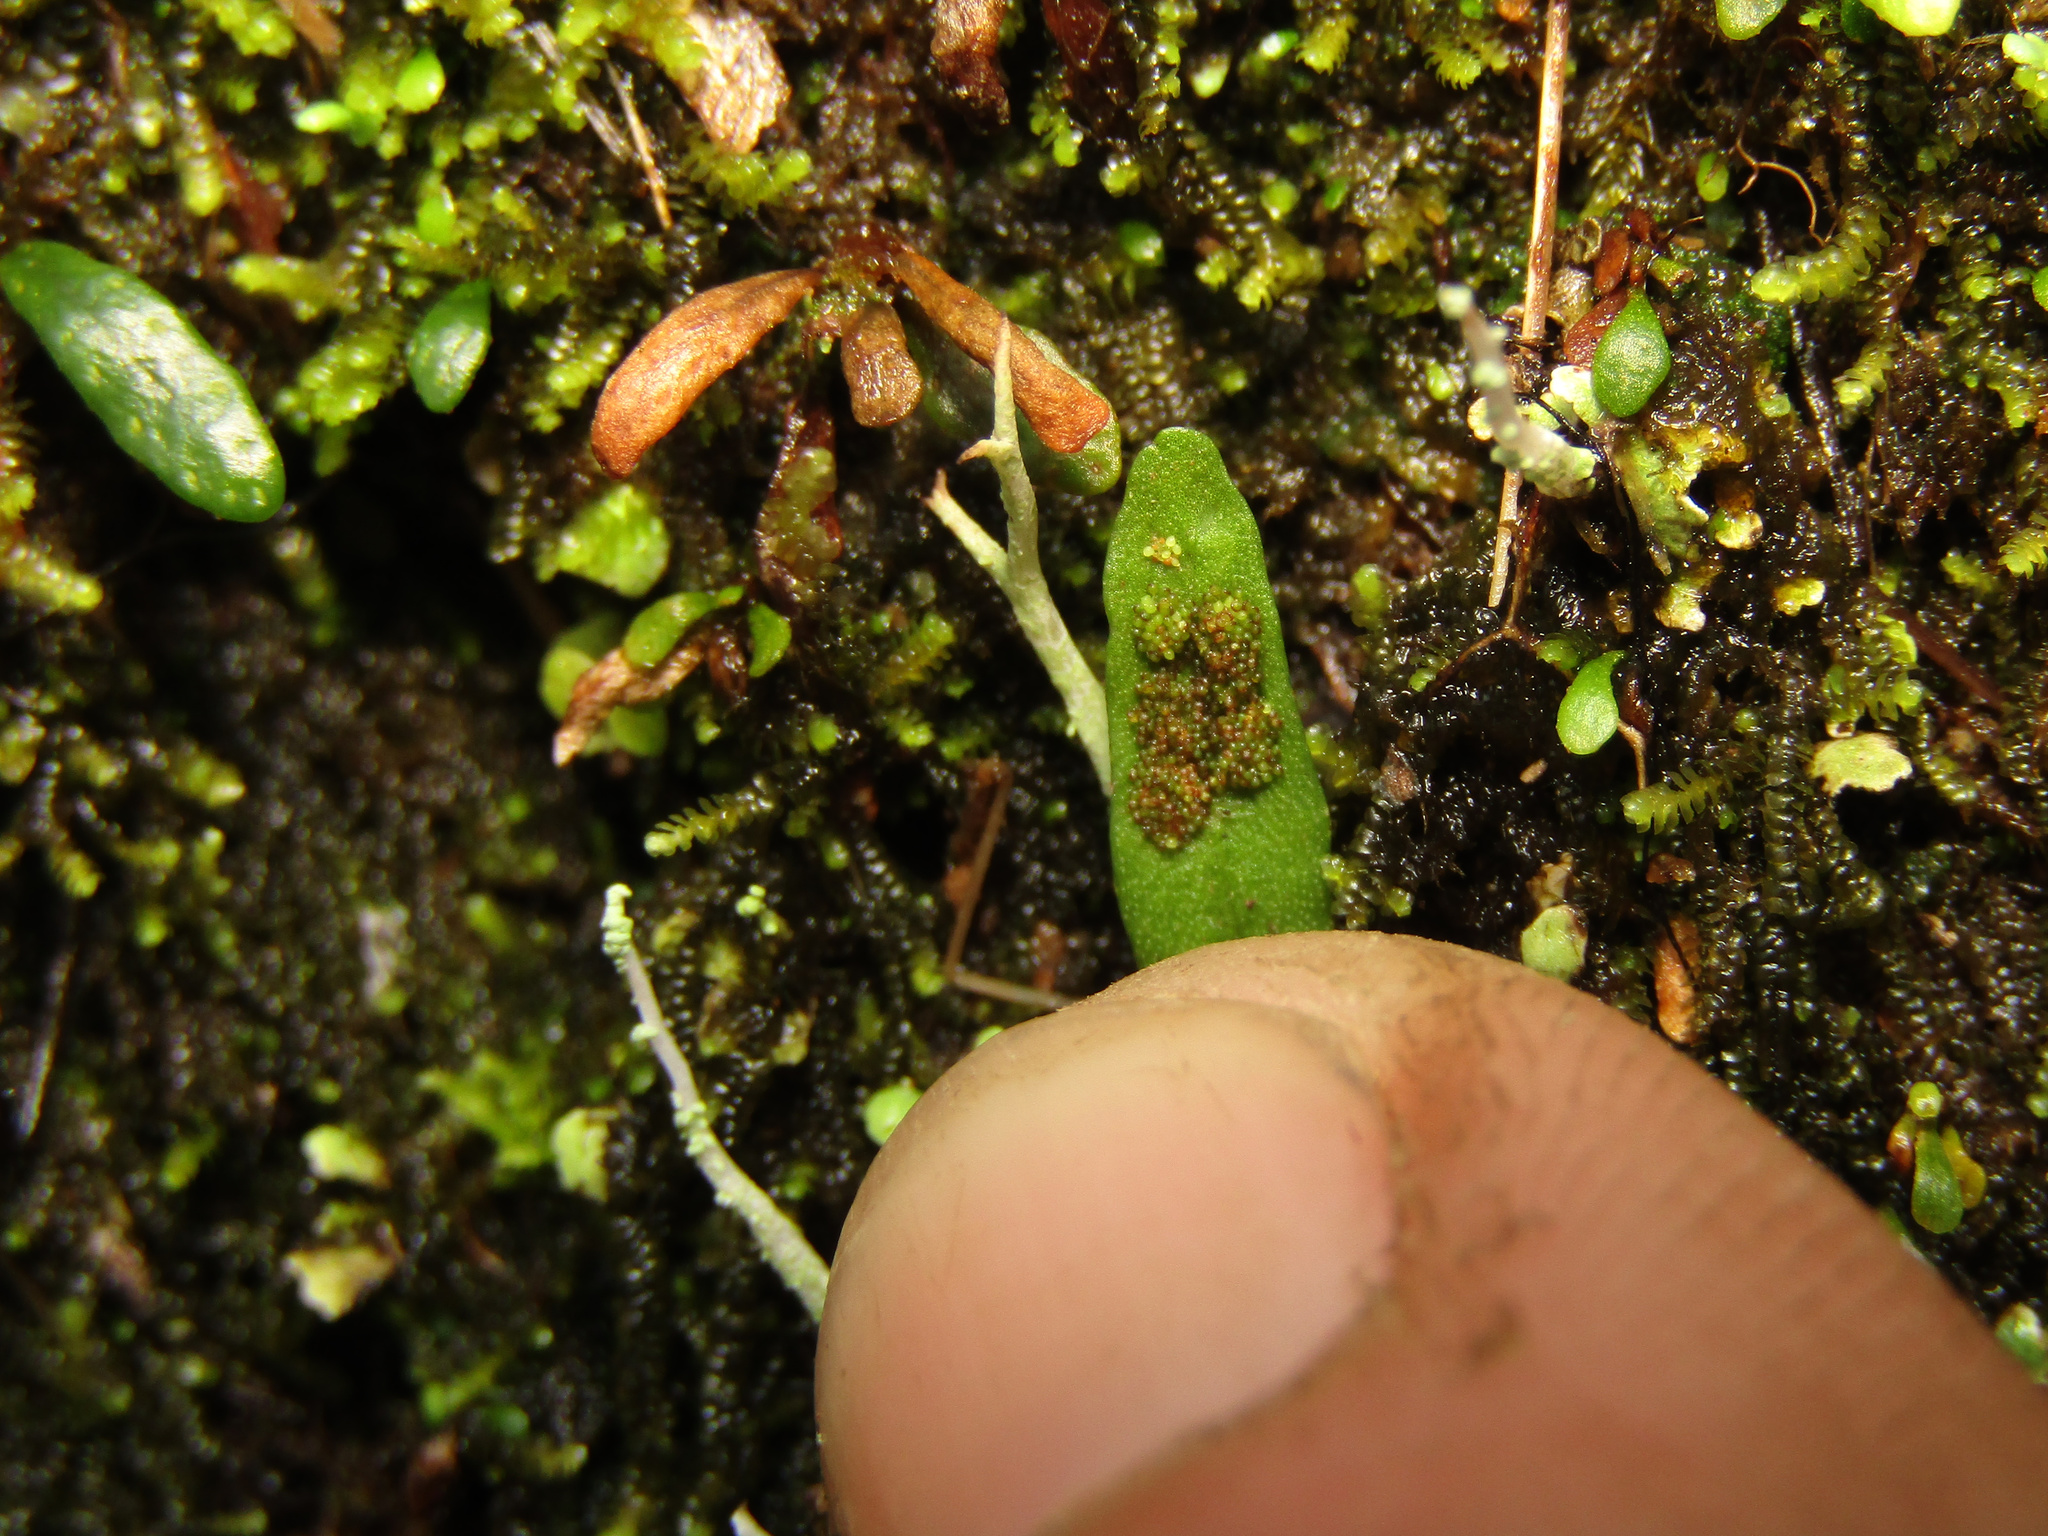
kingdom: Plantae
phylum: Tracheophyta
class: Polypodiopsida
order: Polypodiales
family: Polypodiaceae
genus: Grammitis
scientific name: Grammitis stenophylla
